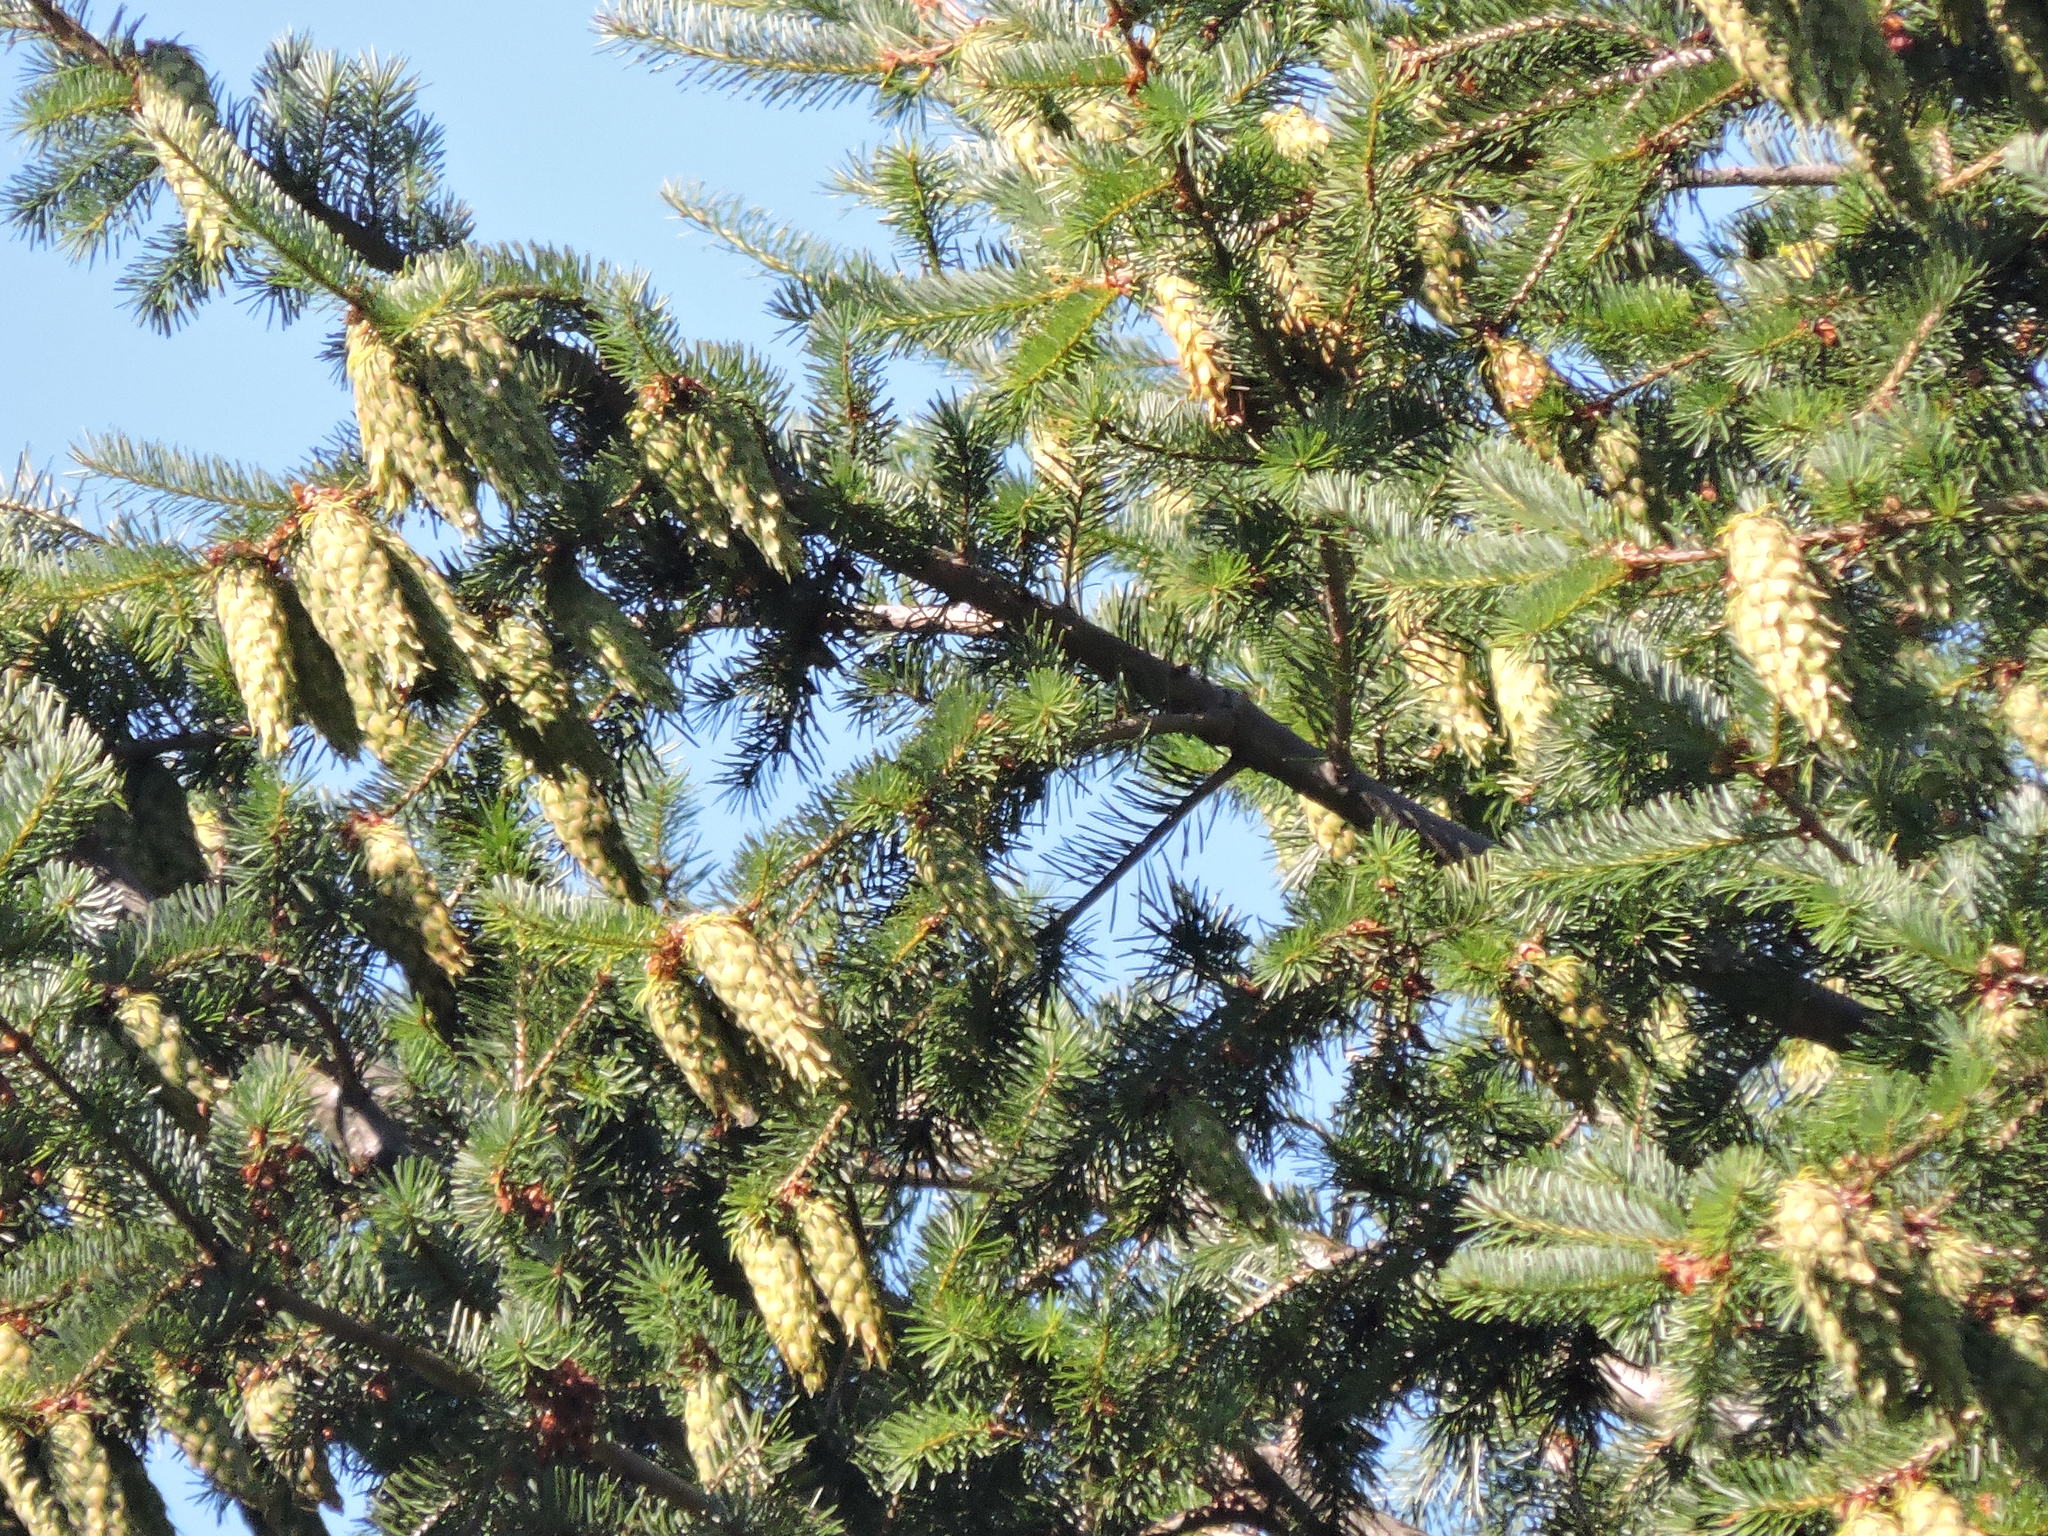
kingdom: Plantae
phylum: Tracheophyta
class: Pinopsida
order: Pinales
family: Pinaceae
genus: Pseudotsuga
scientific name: Pseudotsuga menziesii
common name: Douglas fir
